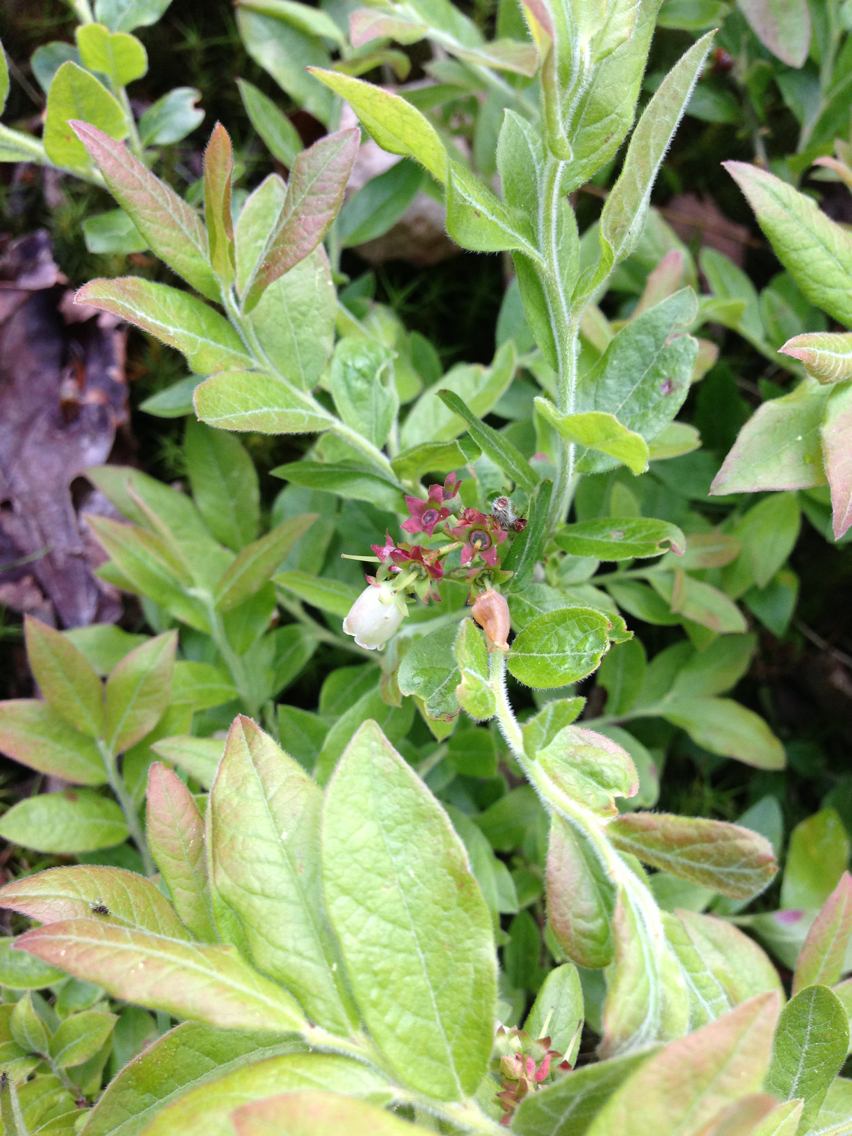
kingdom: Plantae
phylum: Tracheophyta
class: Magnoliopsida
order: Ericales
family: Ericaceae
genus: Vaccinium
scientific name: Vaccinium myrtilloides
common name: Canada blueberry
